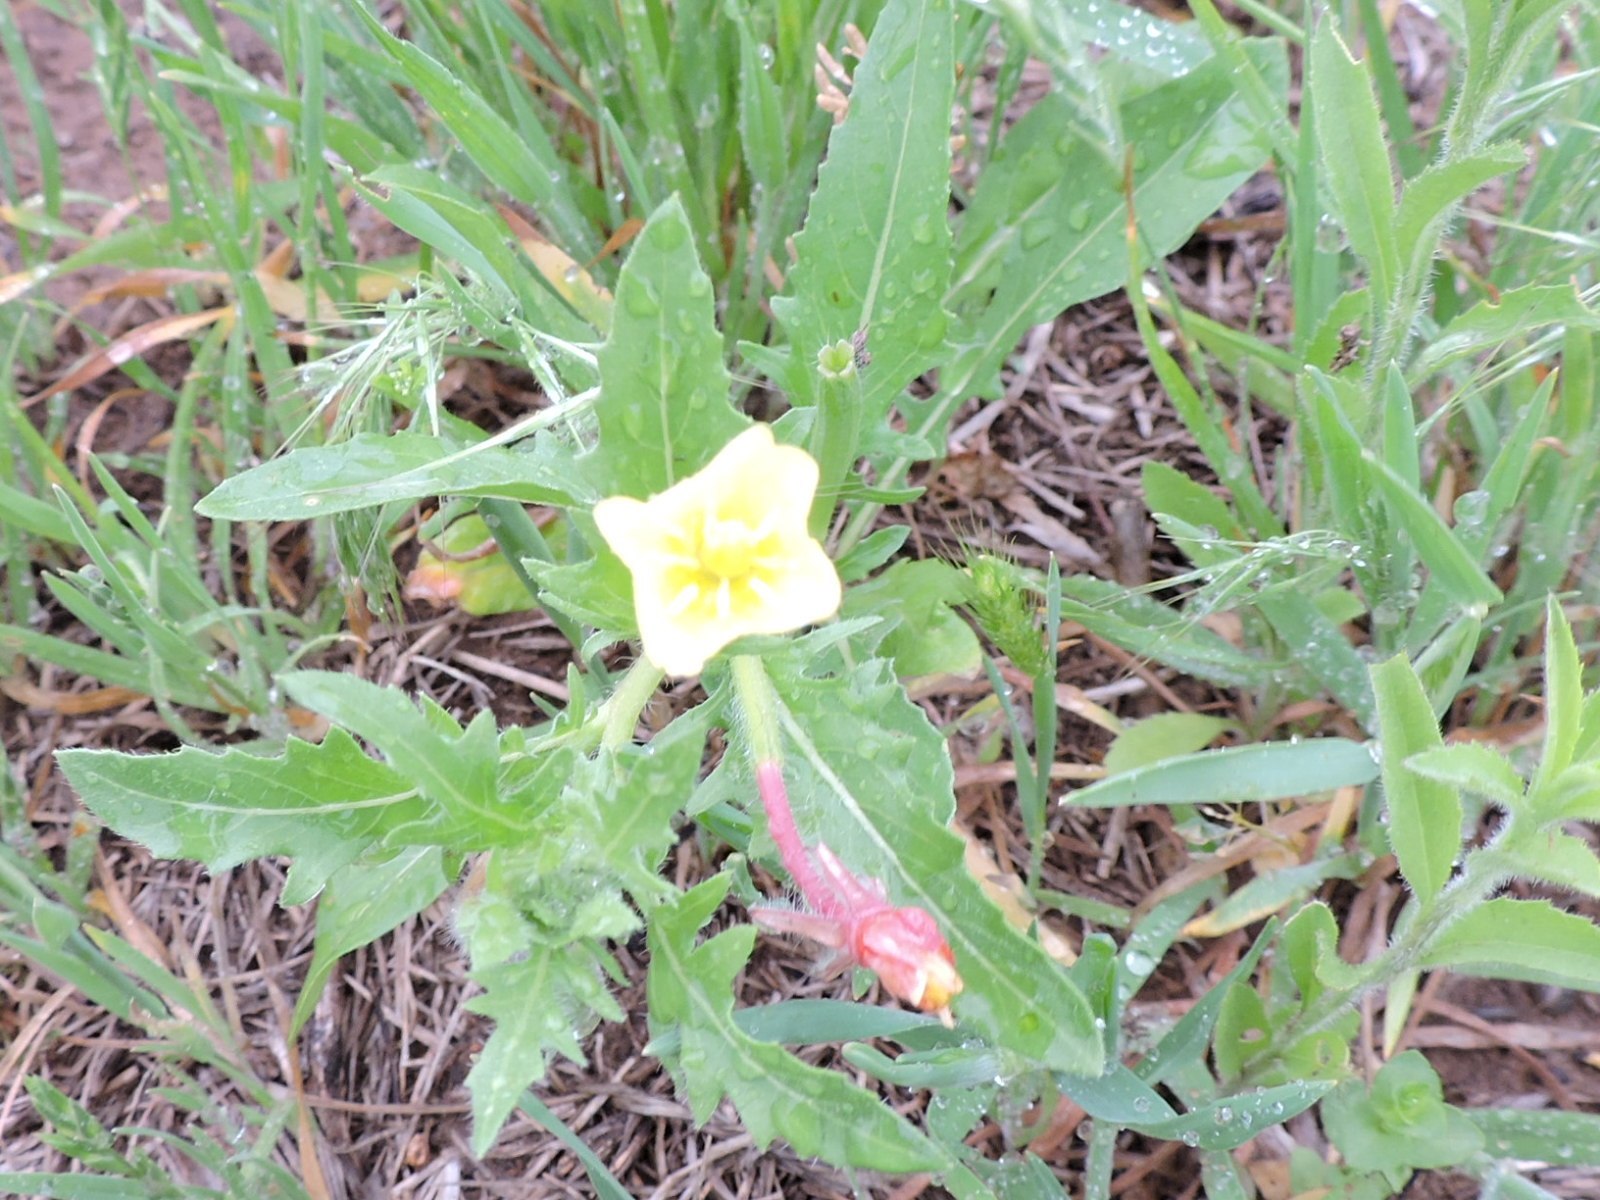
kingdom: Plantae
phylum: Tracheophyta
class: Magnoliopsida
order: Myrtales
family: Onagraceae
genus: Oenothera
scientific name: Oenothera laciniata
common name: Cut-leaved evening-primrose
